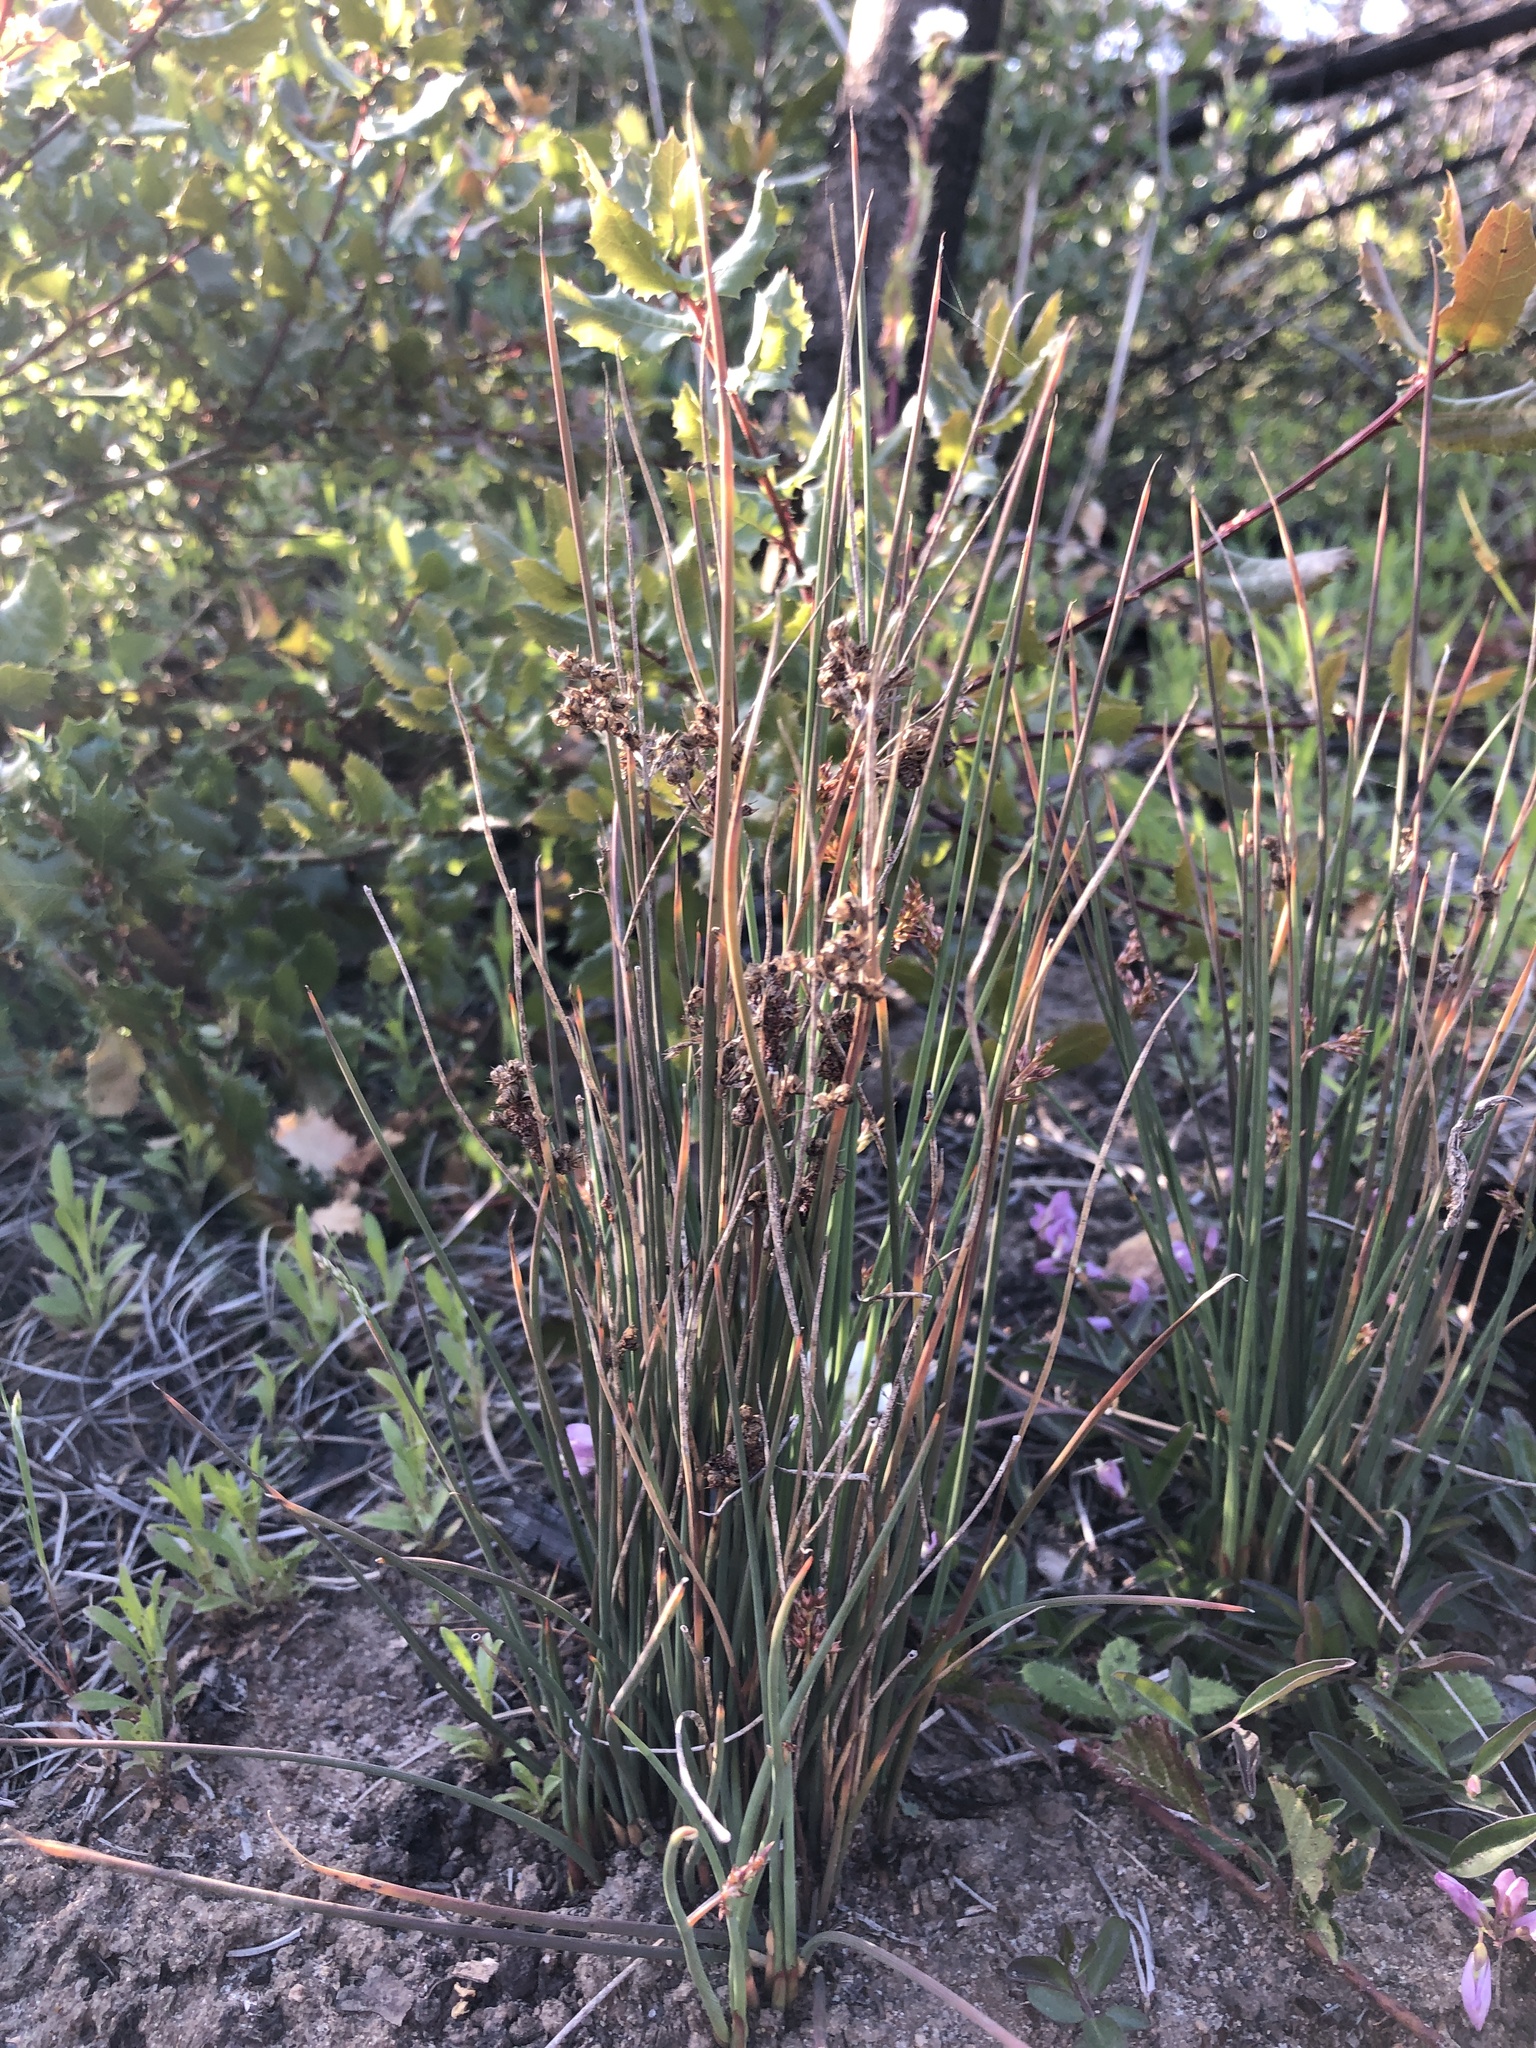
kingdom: Plantae
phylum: Tracheophyta
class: Liliopsida
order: Poales
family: Juncaceae
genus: Juncus
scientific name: Juncus patens
